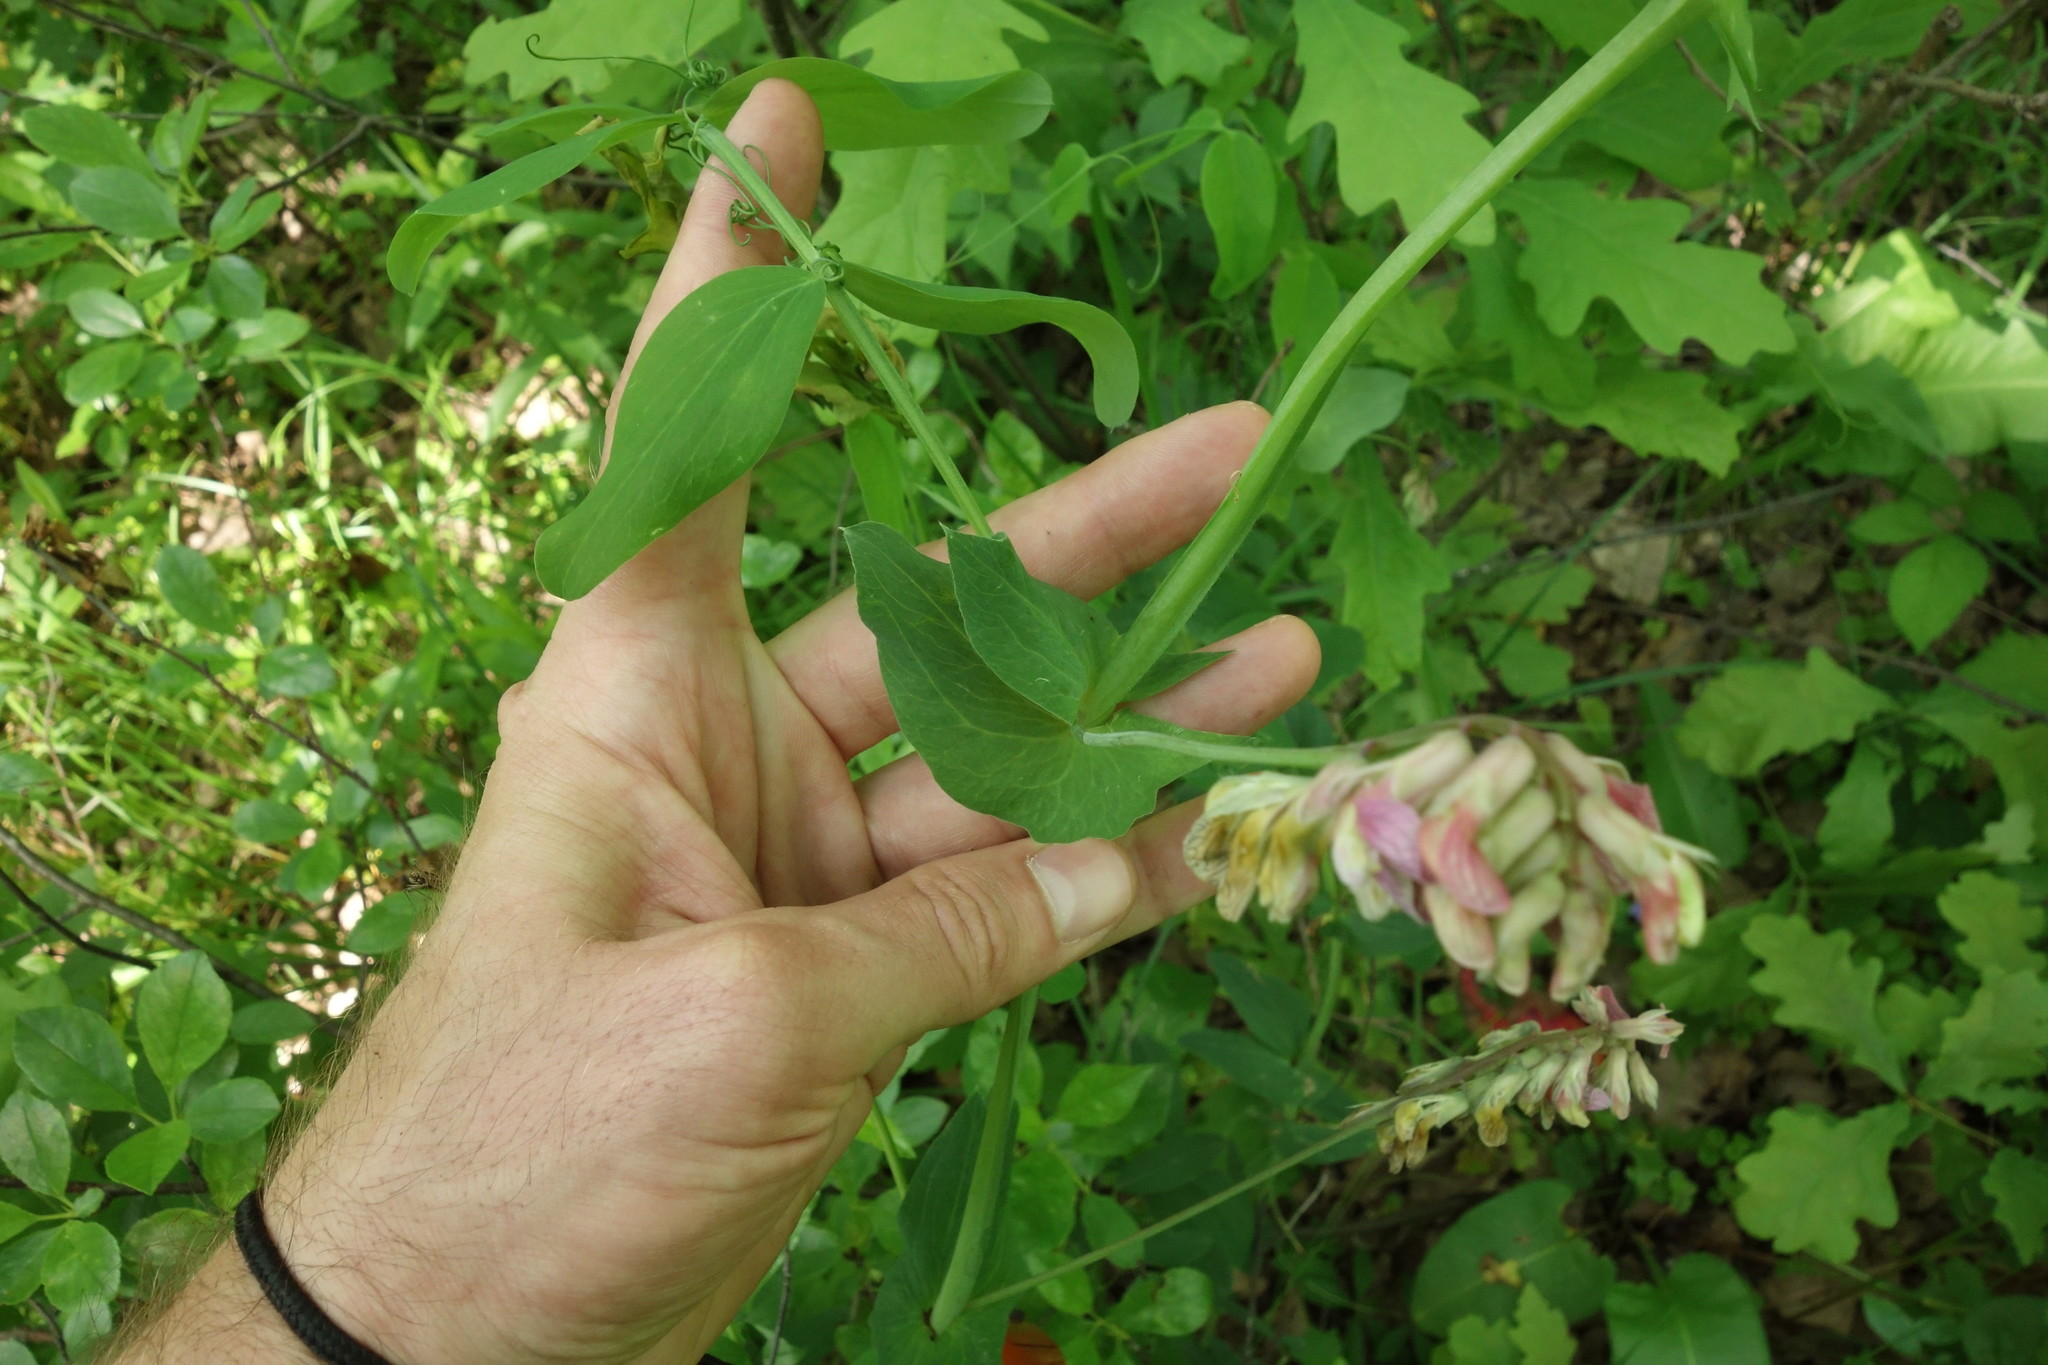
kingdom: Plantae
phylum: Tracheophyta
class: Magnoliopsida
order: Fabales
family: Fabaceae
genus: Lathyrus
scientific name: Lathyrus pisiformis
